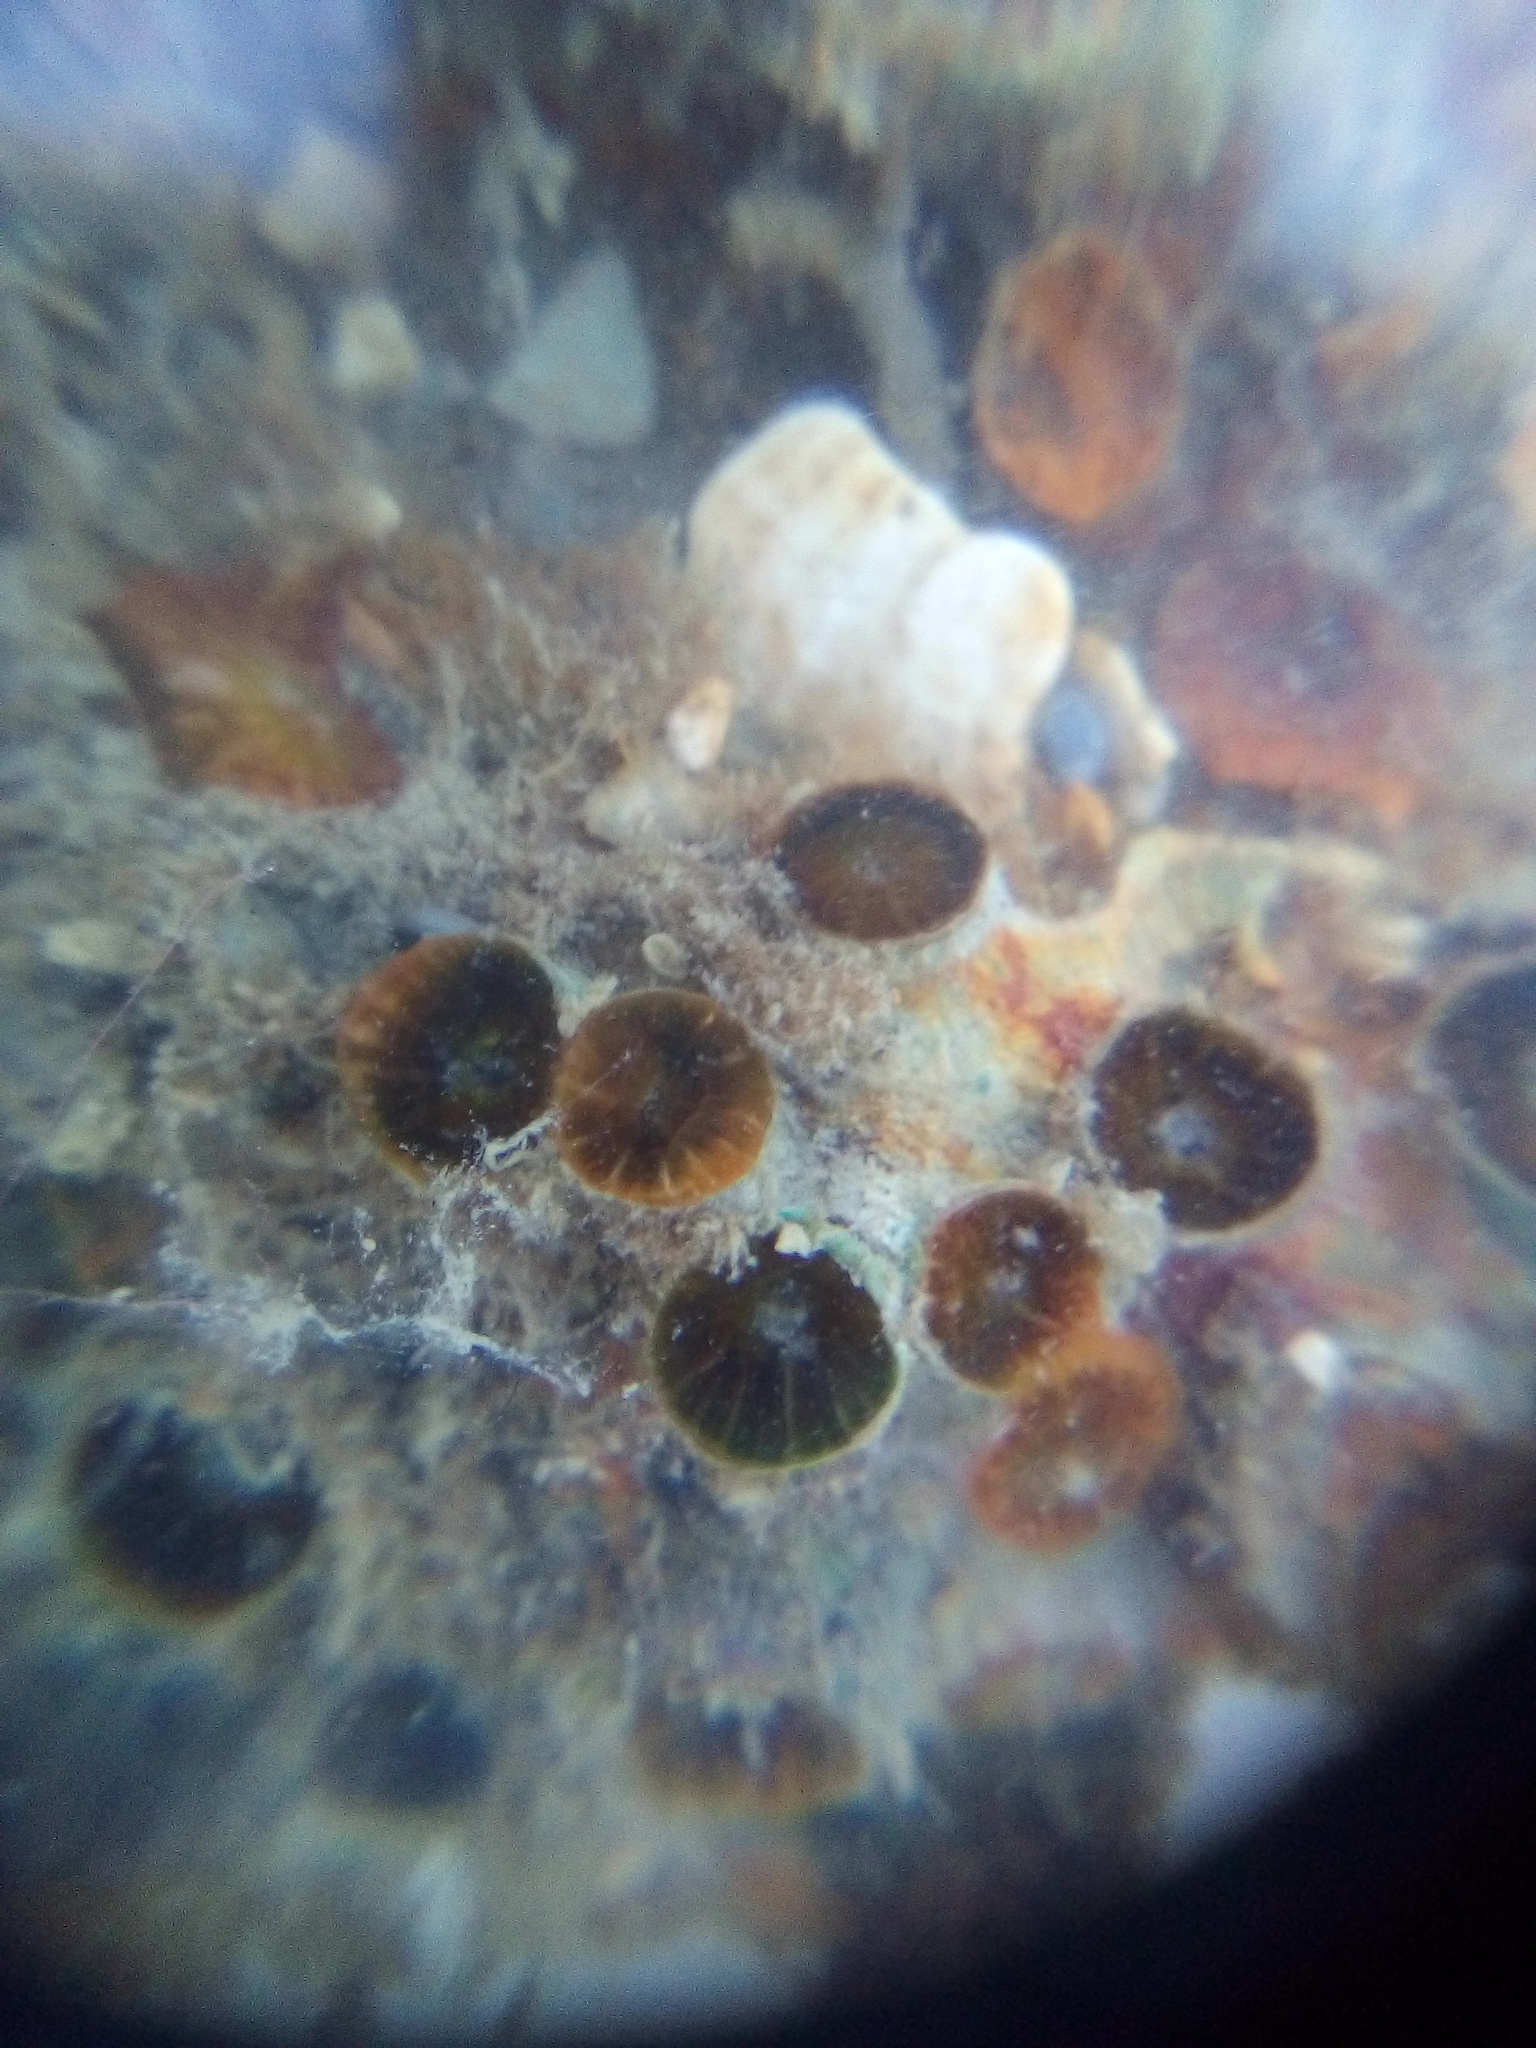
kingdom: Animalia
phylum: Cnidaria
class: Anthozoa
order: Scleractinia
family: Rhizangiidae
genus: Culicia
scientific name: Culicia rubeola
